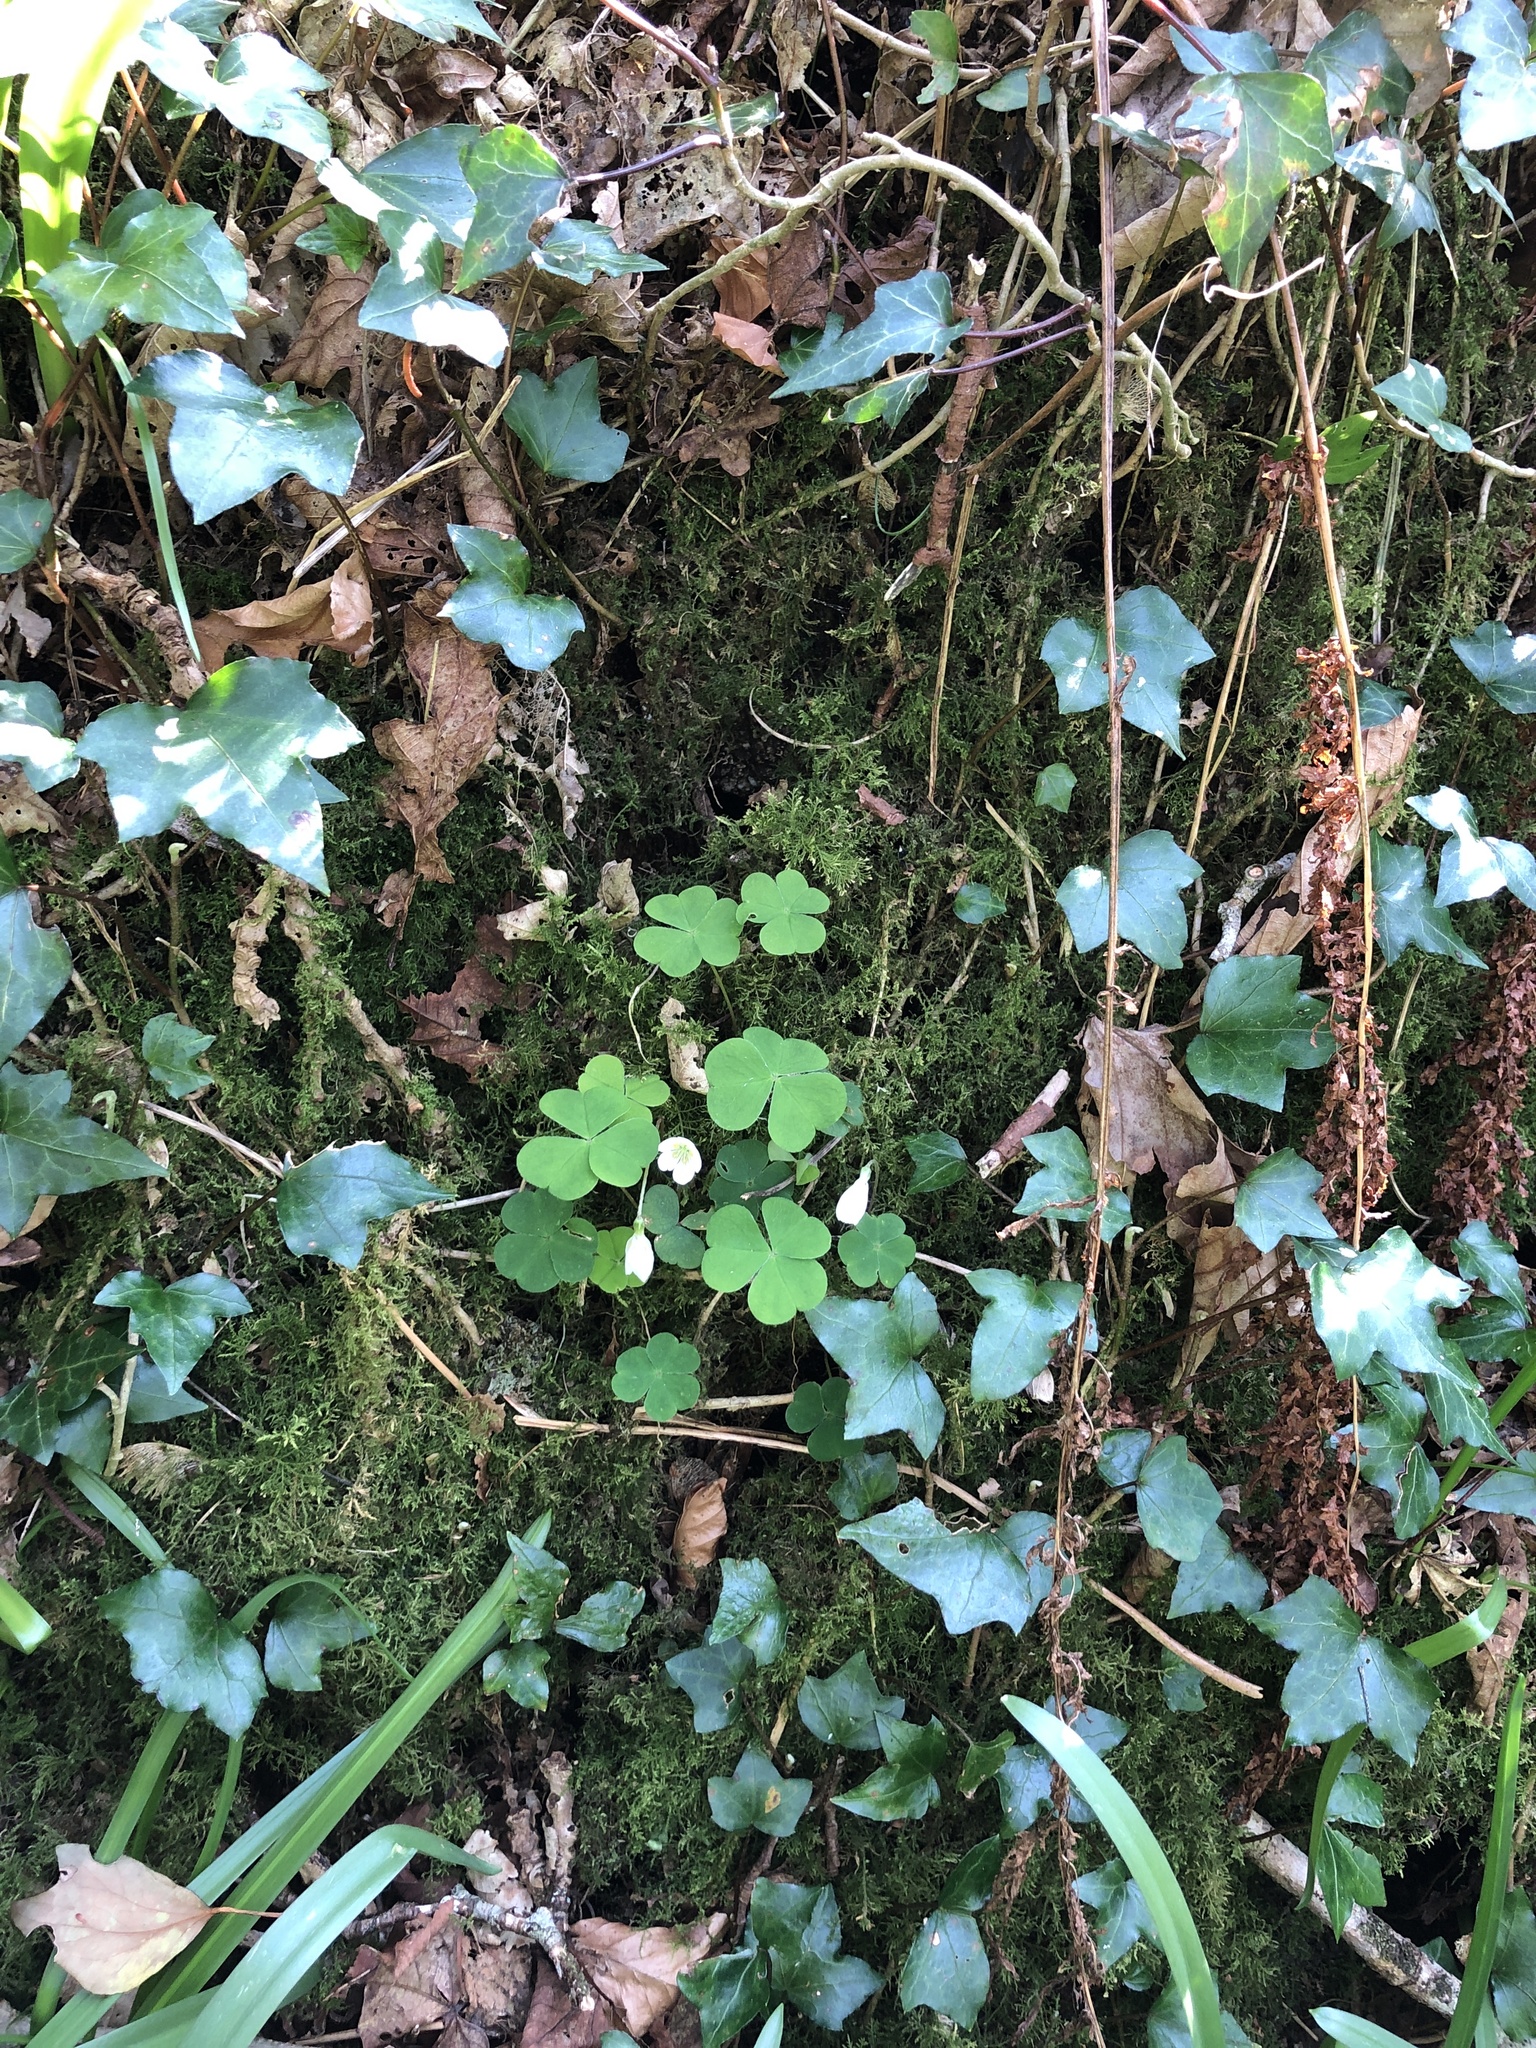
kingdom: Plantae
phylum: Tracheophyta
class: Magnoliopsida
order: Oxalidales
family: Oxalidaceae
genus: Oxalis
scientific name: Oxalis acetosella
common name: Wood-sorrel
